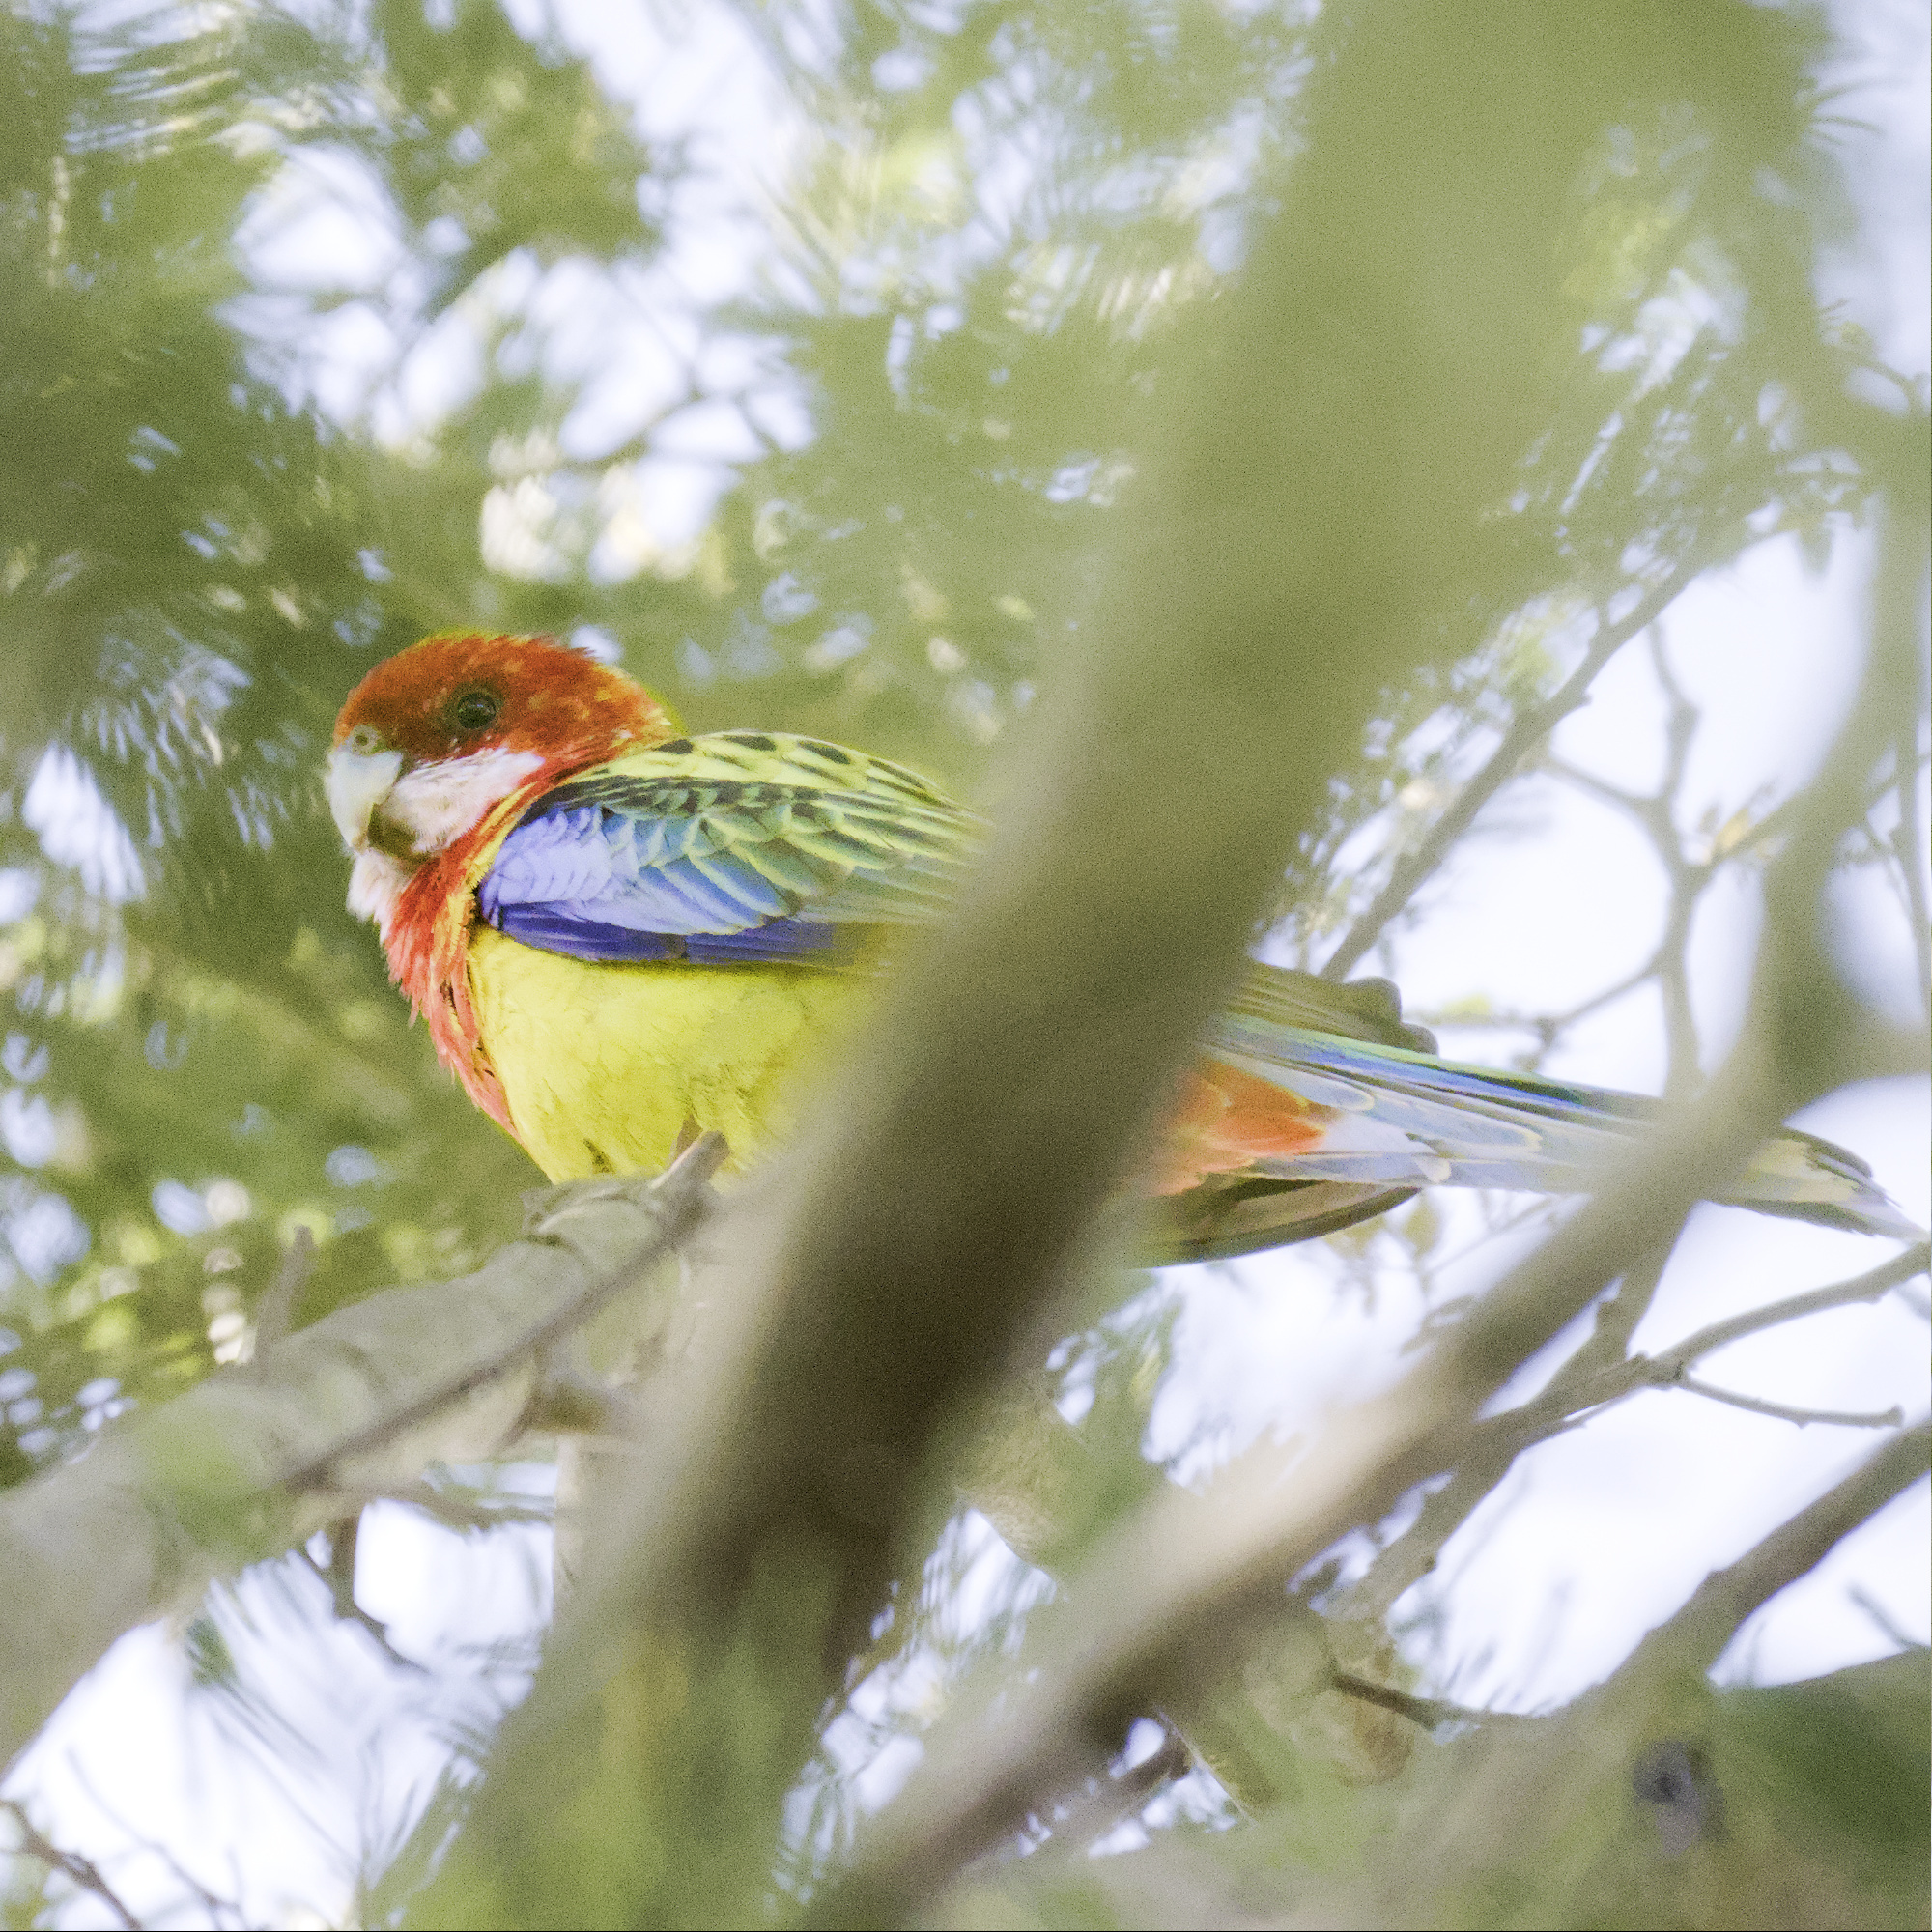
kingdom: Animalia
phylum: Chordata
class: Aves
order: Psittaciformes
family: Psittacidae
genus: Platycercus
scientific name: Platycercus eximius
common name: Eastern rosella
